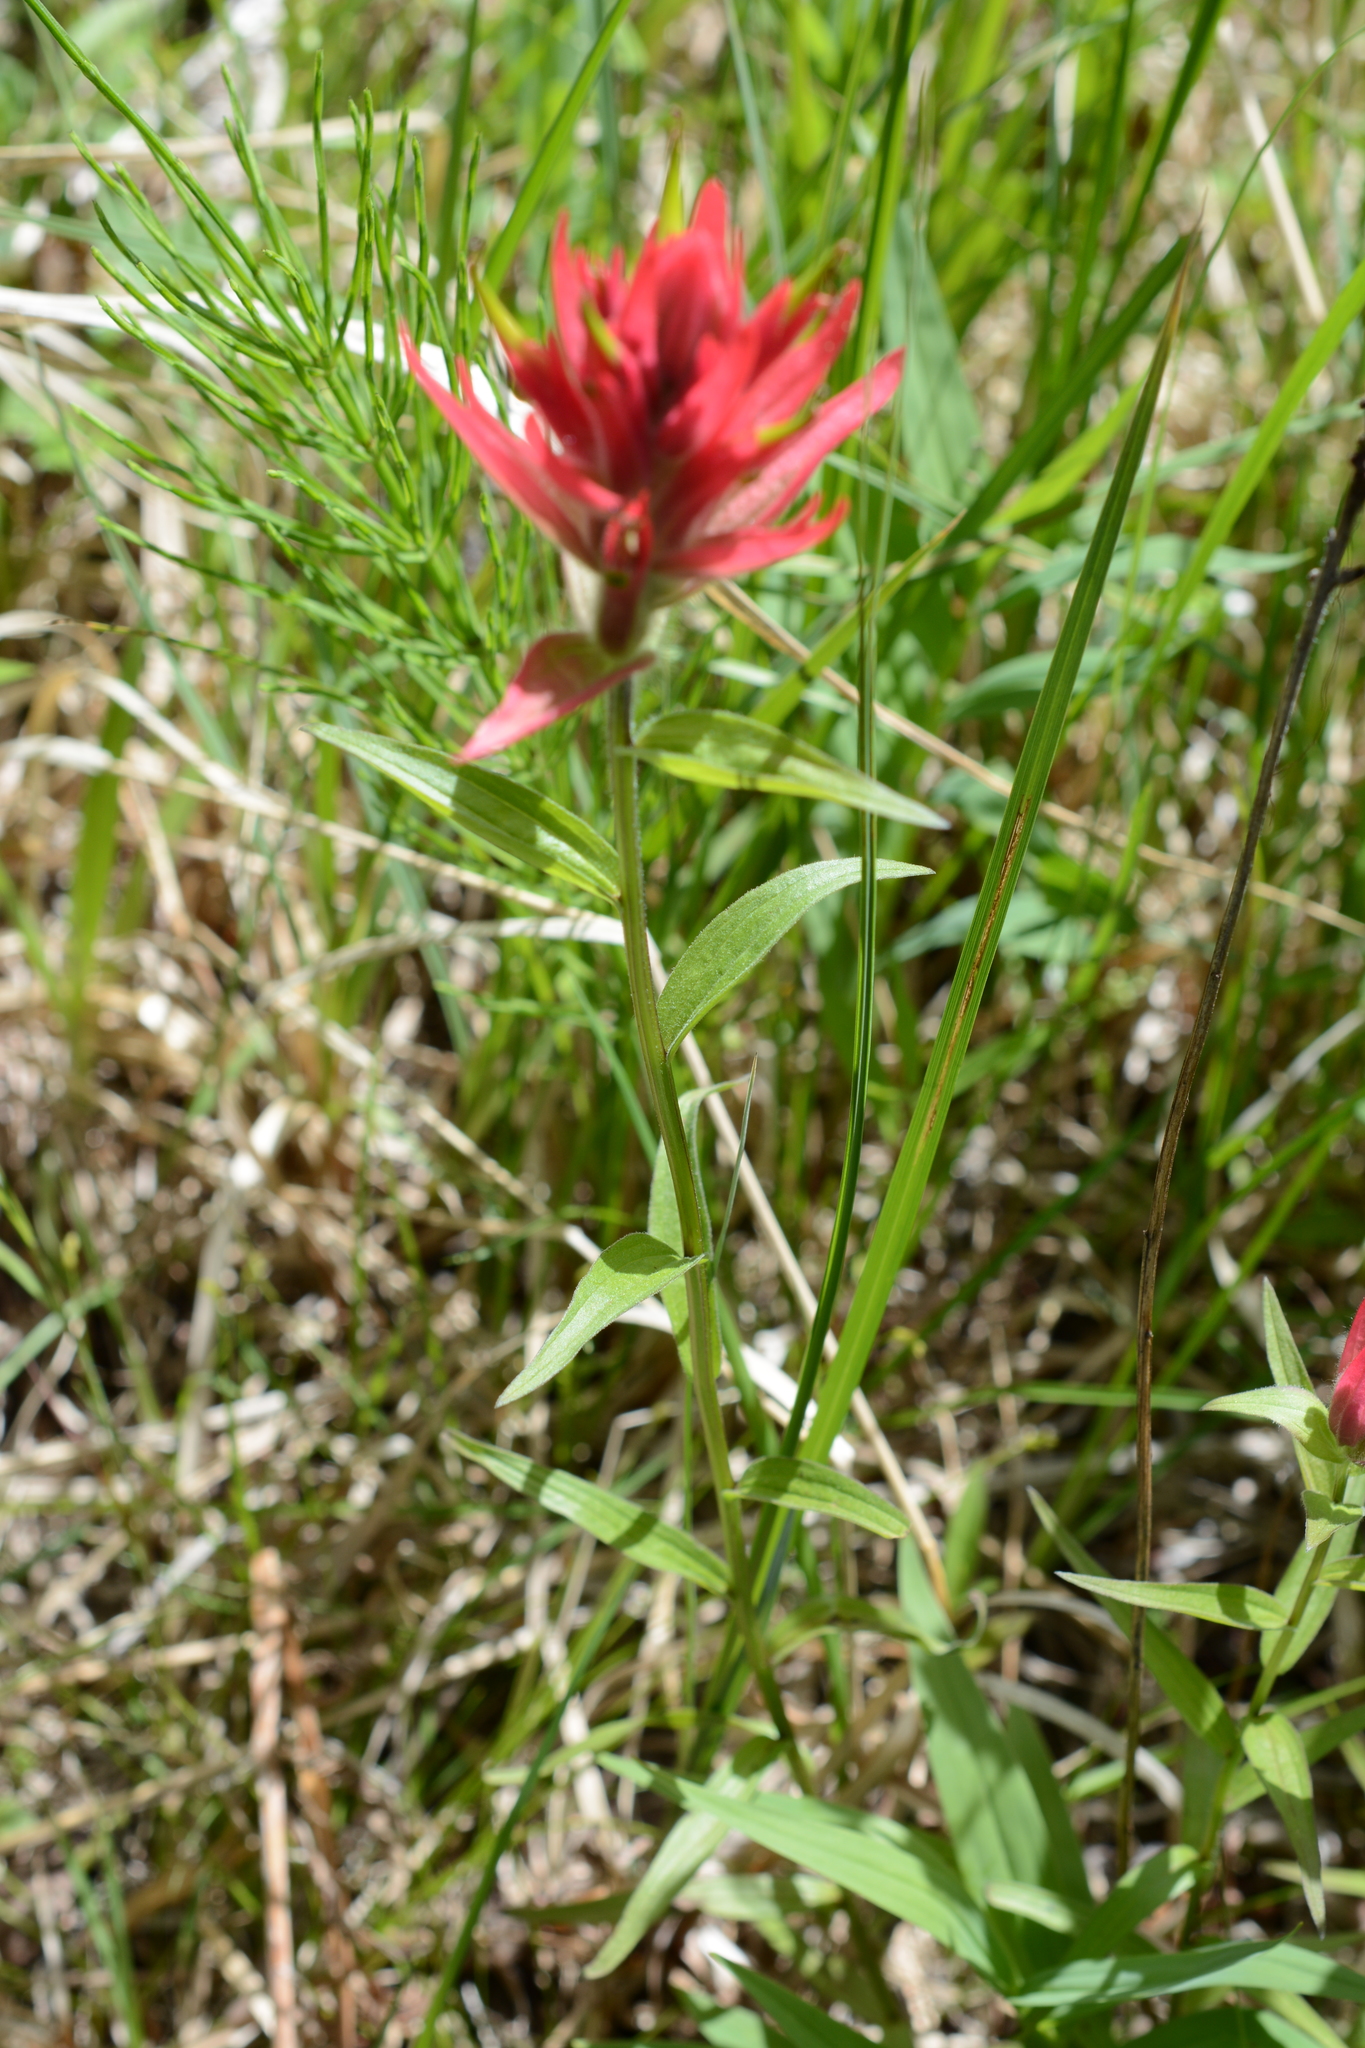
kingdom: Plantae
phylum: Tracheophyta
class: Magnoliopsida
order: Lamiales
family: Orobanchaceae
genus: Castilleja
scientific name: Castilleja miniata
